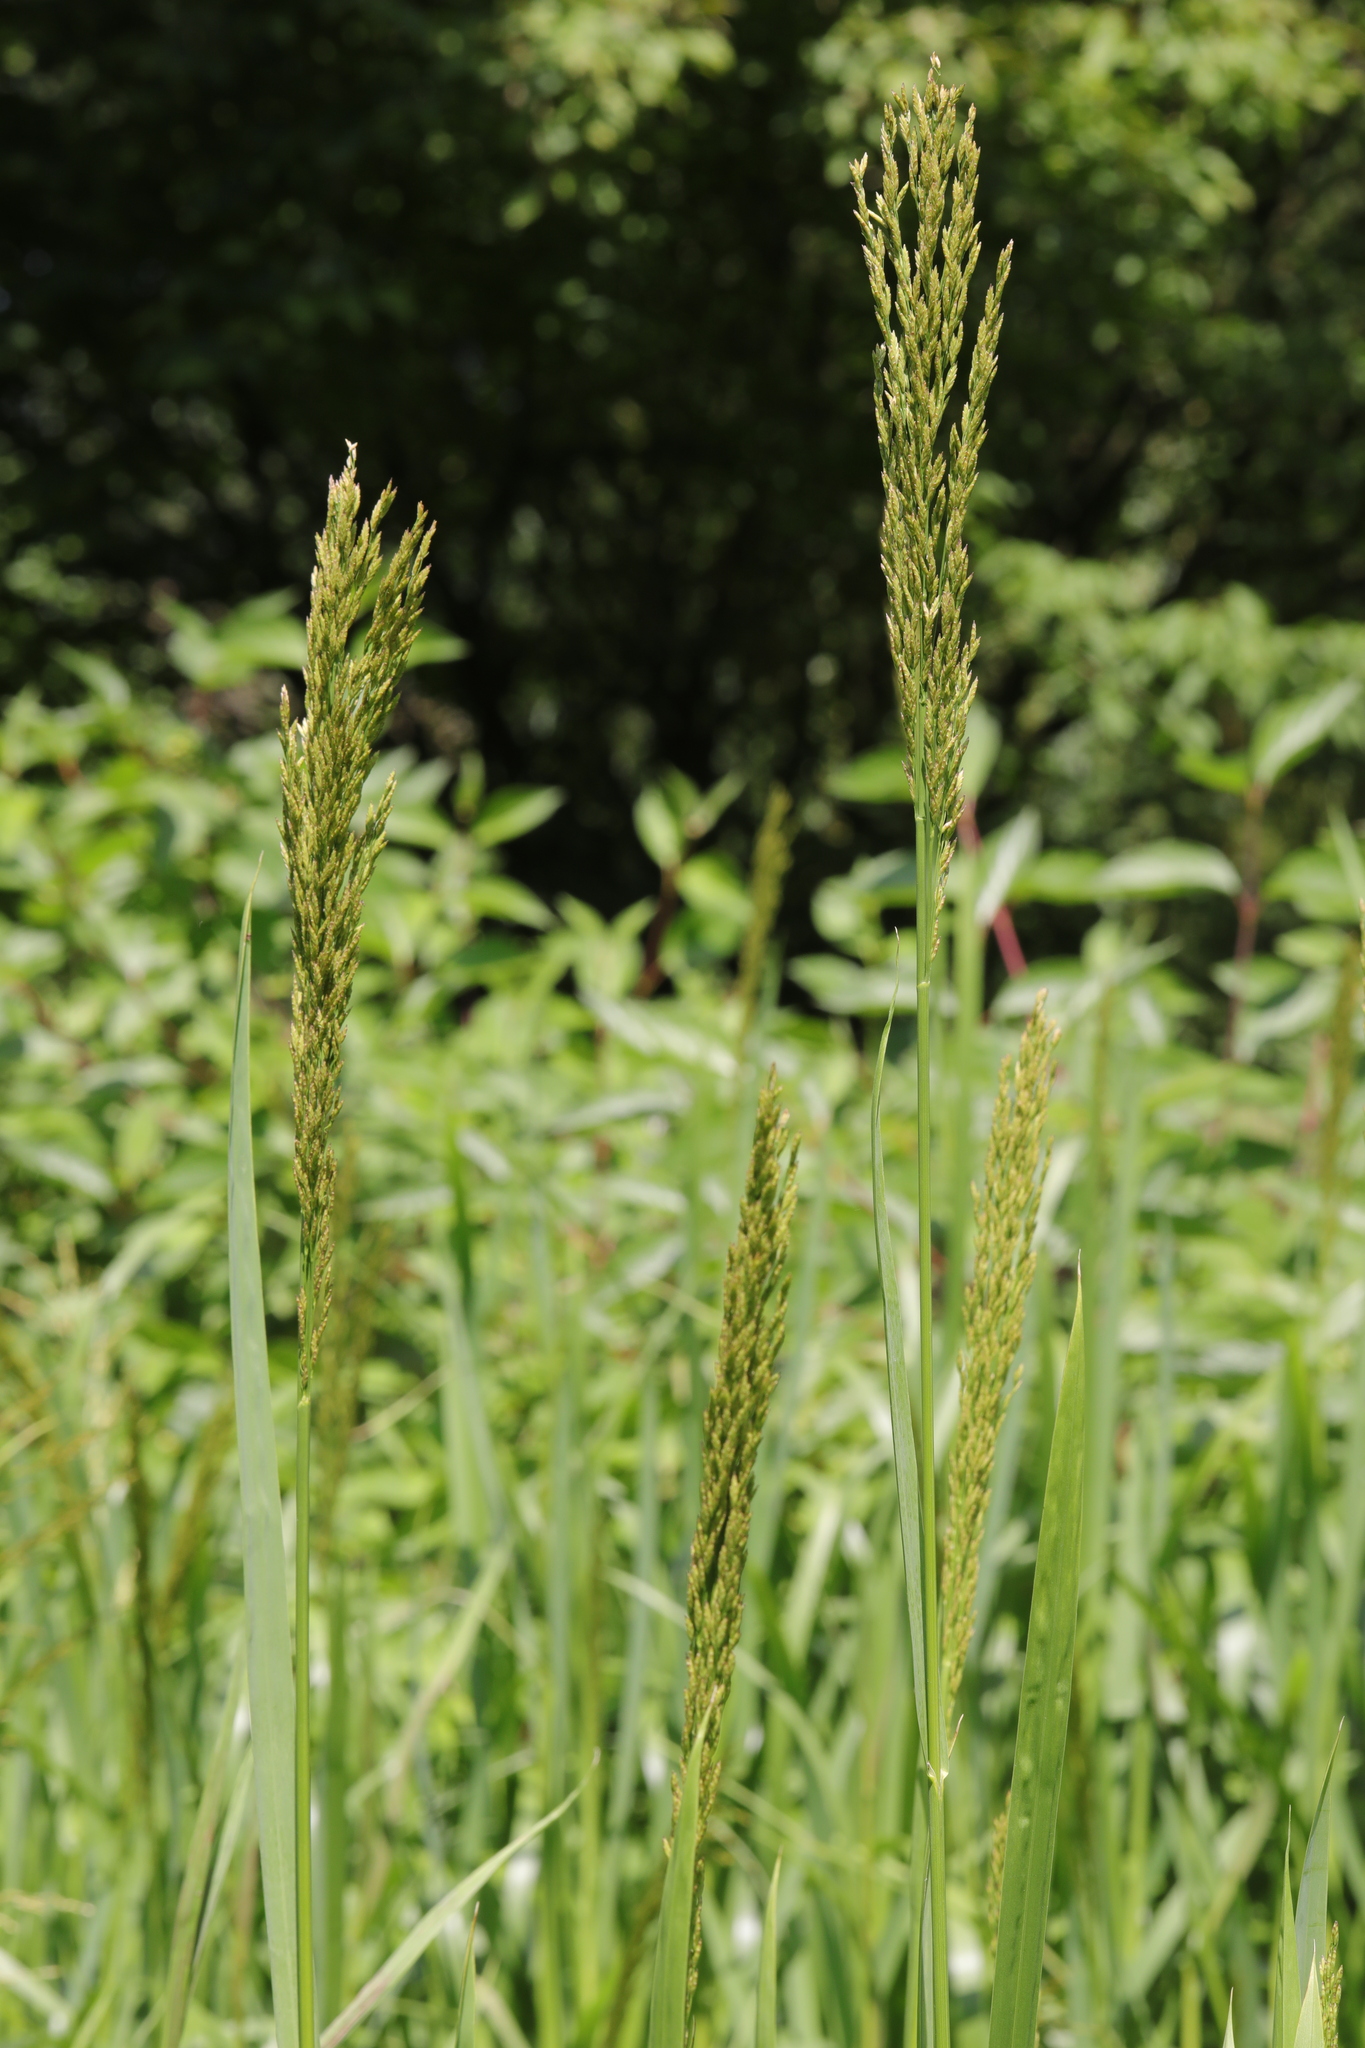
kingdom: Plantae
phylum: Tracheophyta
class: Liliopsida
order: Poales
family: Poaceae
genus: Glyceria
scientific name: Glyceria maxima
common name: Reed mannagrass
